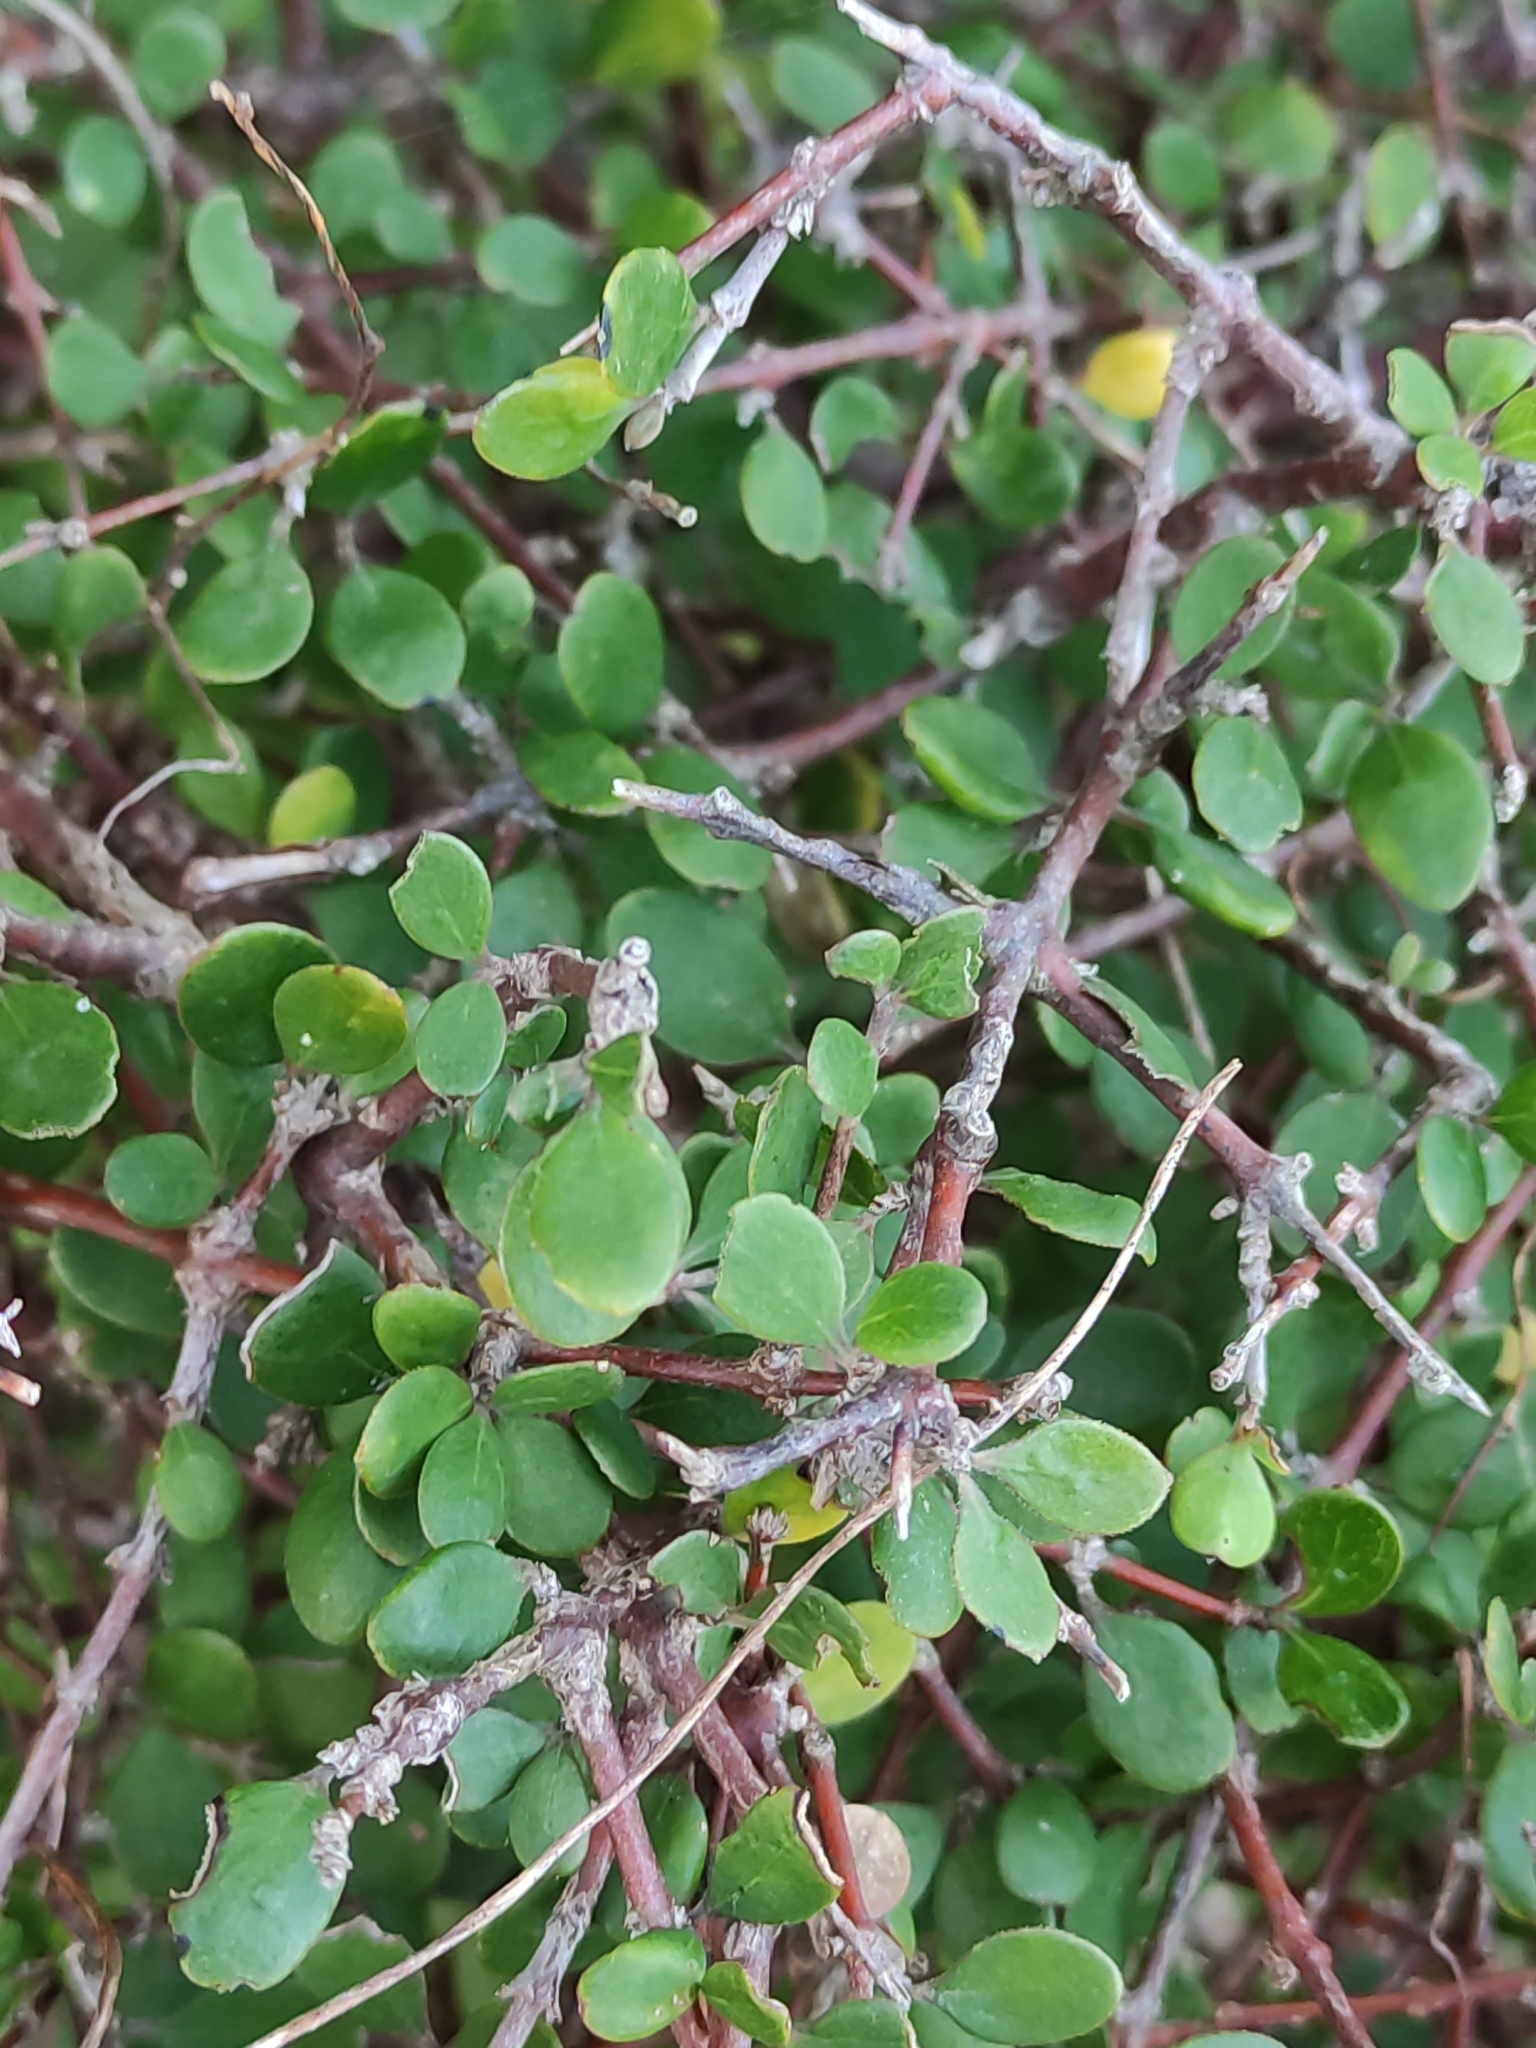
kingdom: Plantae
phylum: Tracheophyta
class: Magnoliopsida
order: Gentianales
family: Rubiaceae
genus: Coprosma
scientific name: Coprosma crassifolia
